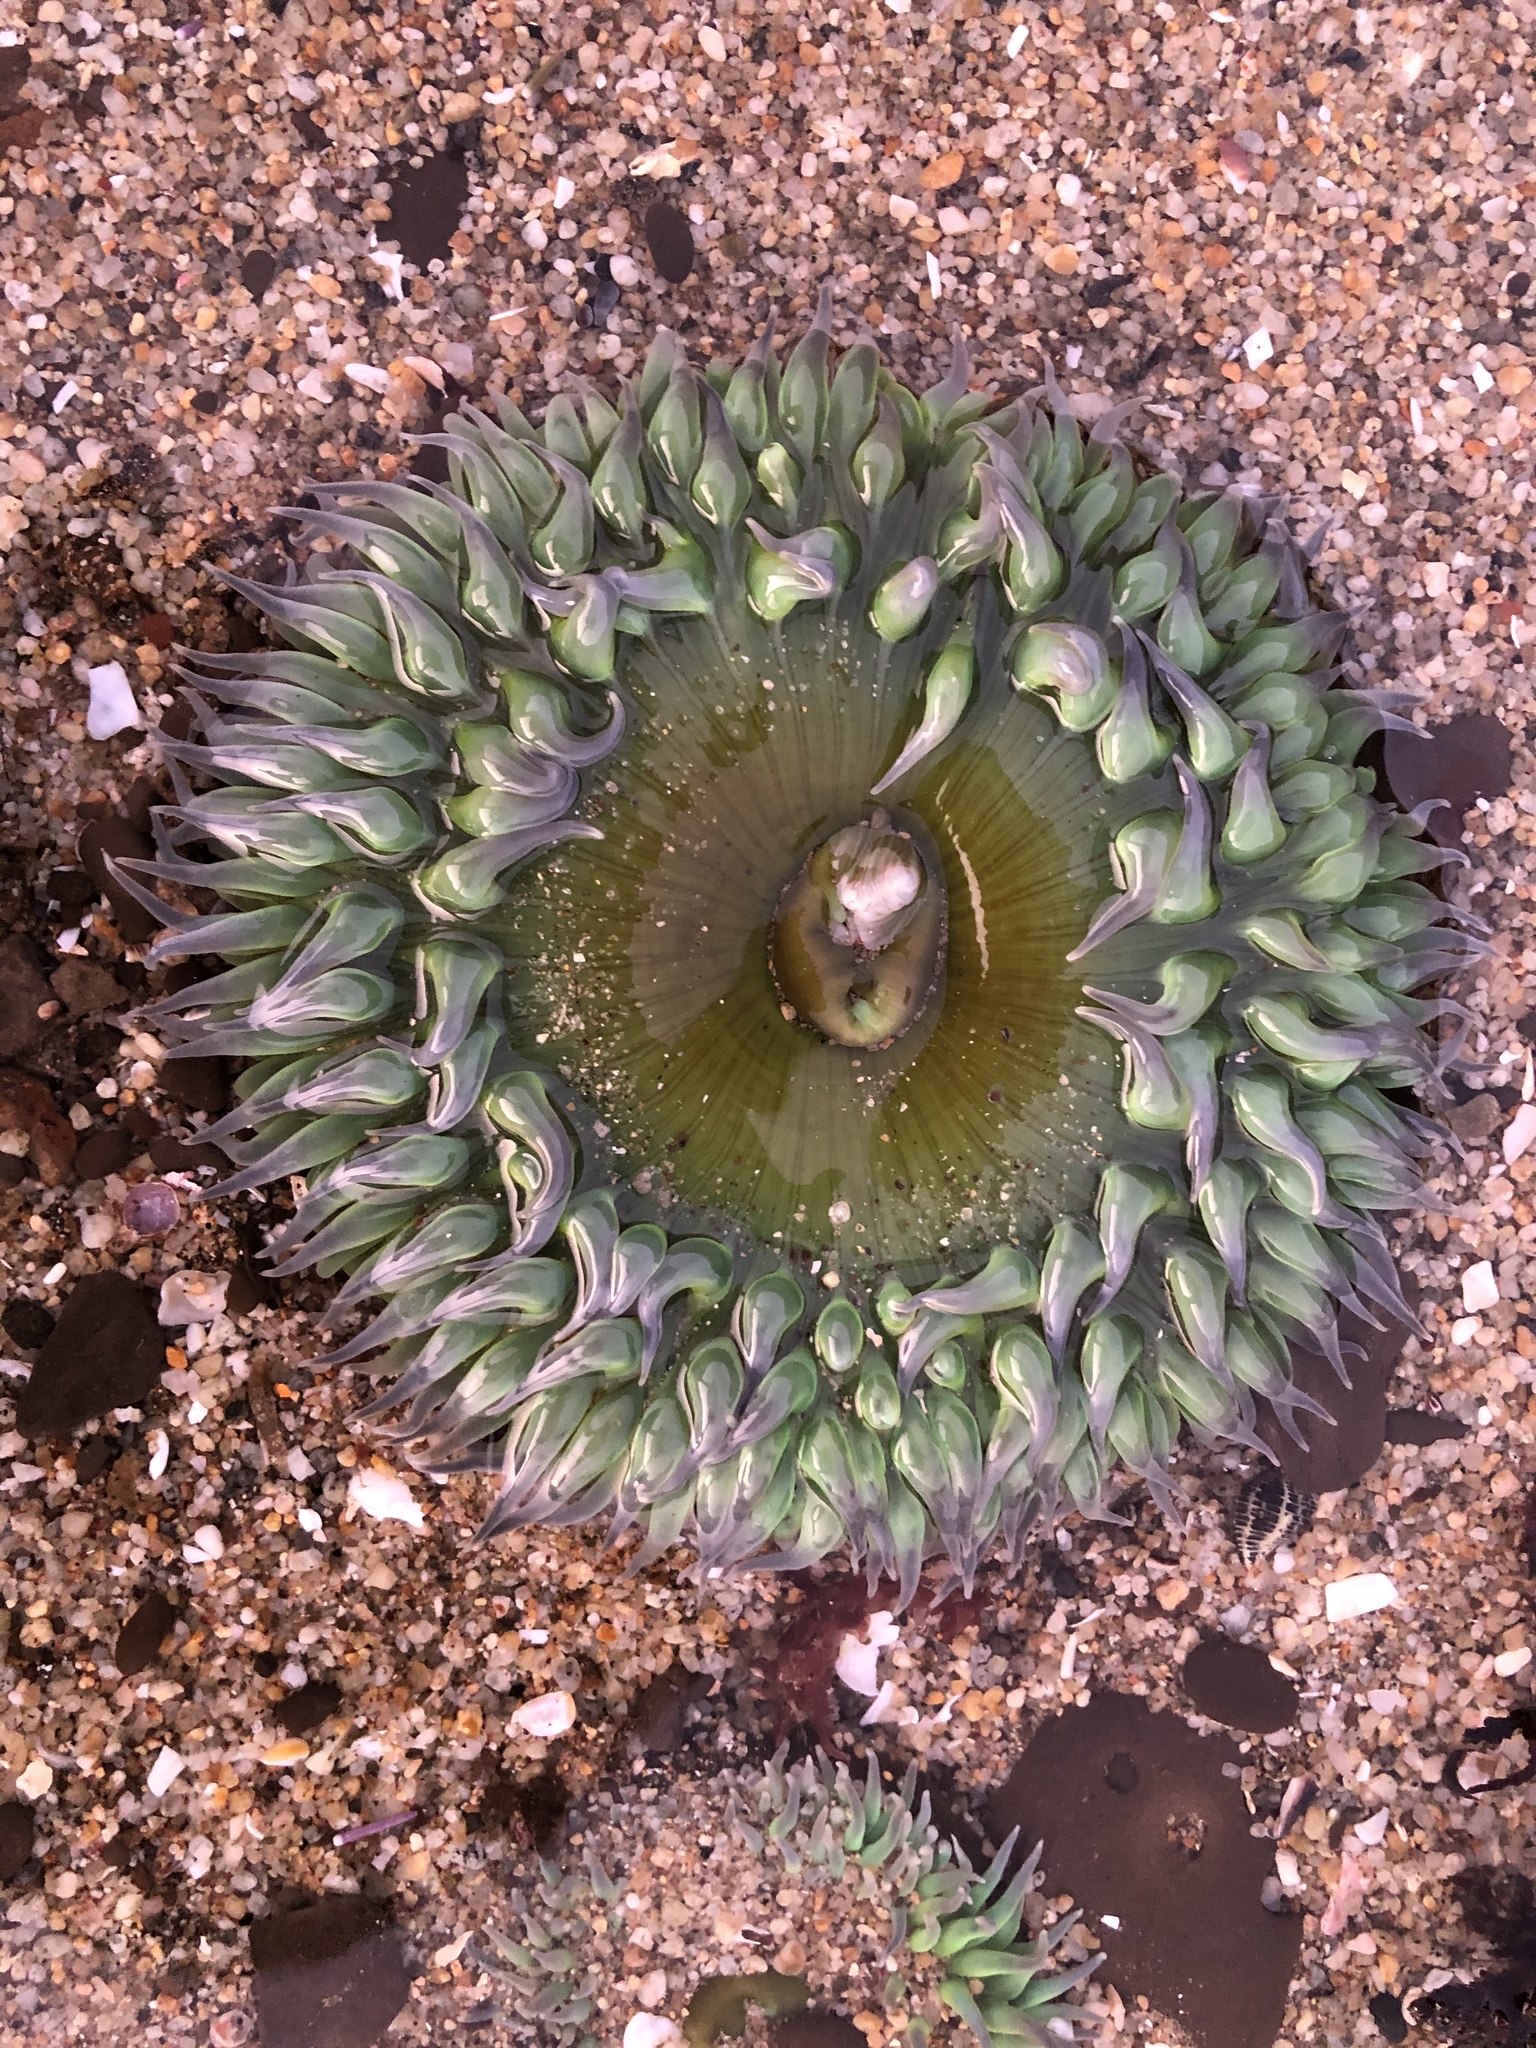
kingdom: Animalia
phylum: Cnidaria
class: Anthozoa
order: Actiniaria
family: Actiniidae
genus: Anthopleura
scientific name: Anthopleura xanthogrammica
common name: Giant green anemone
